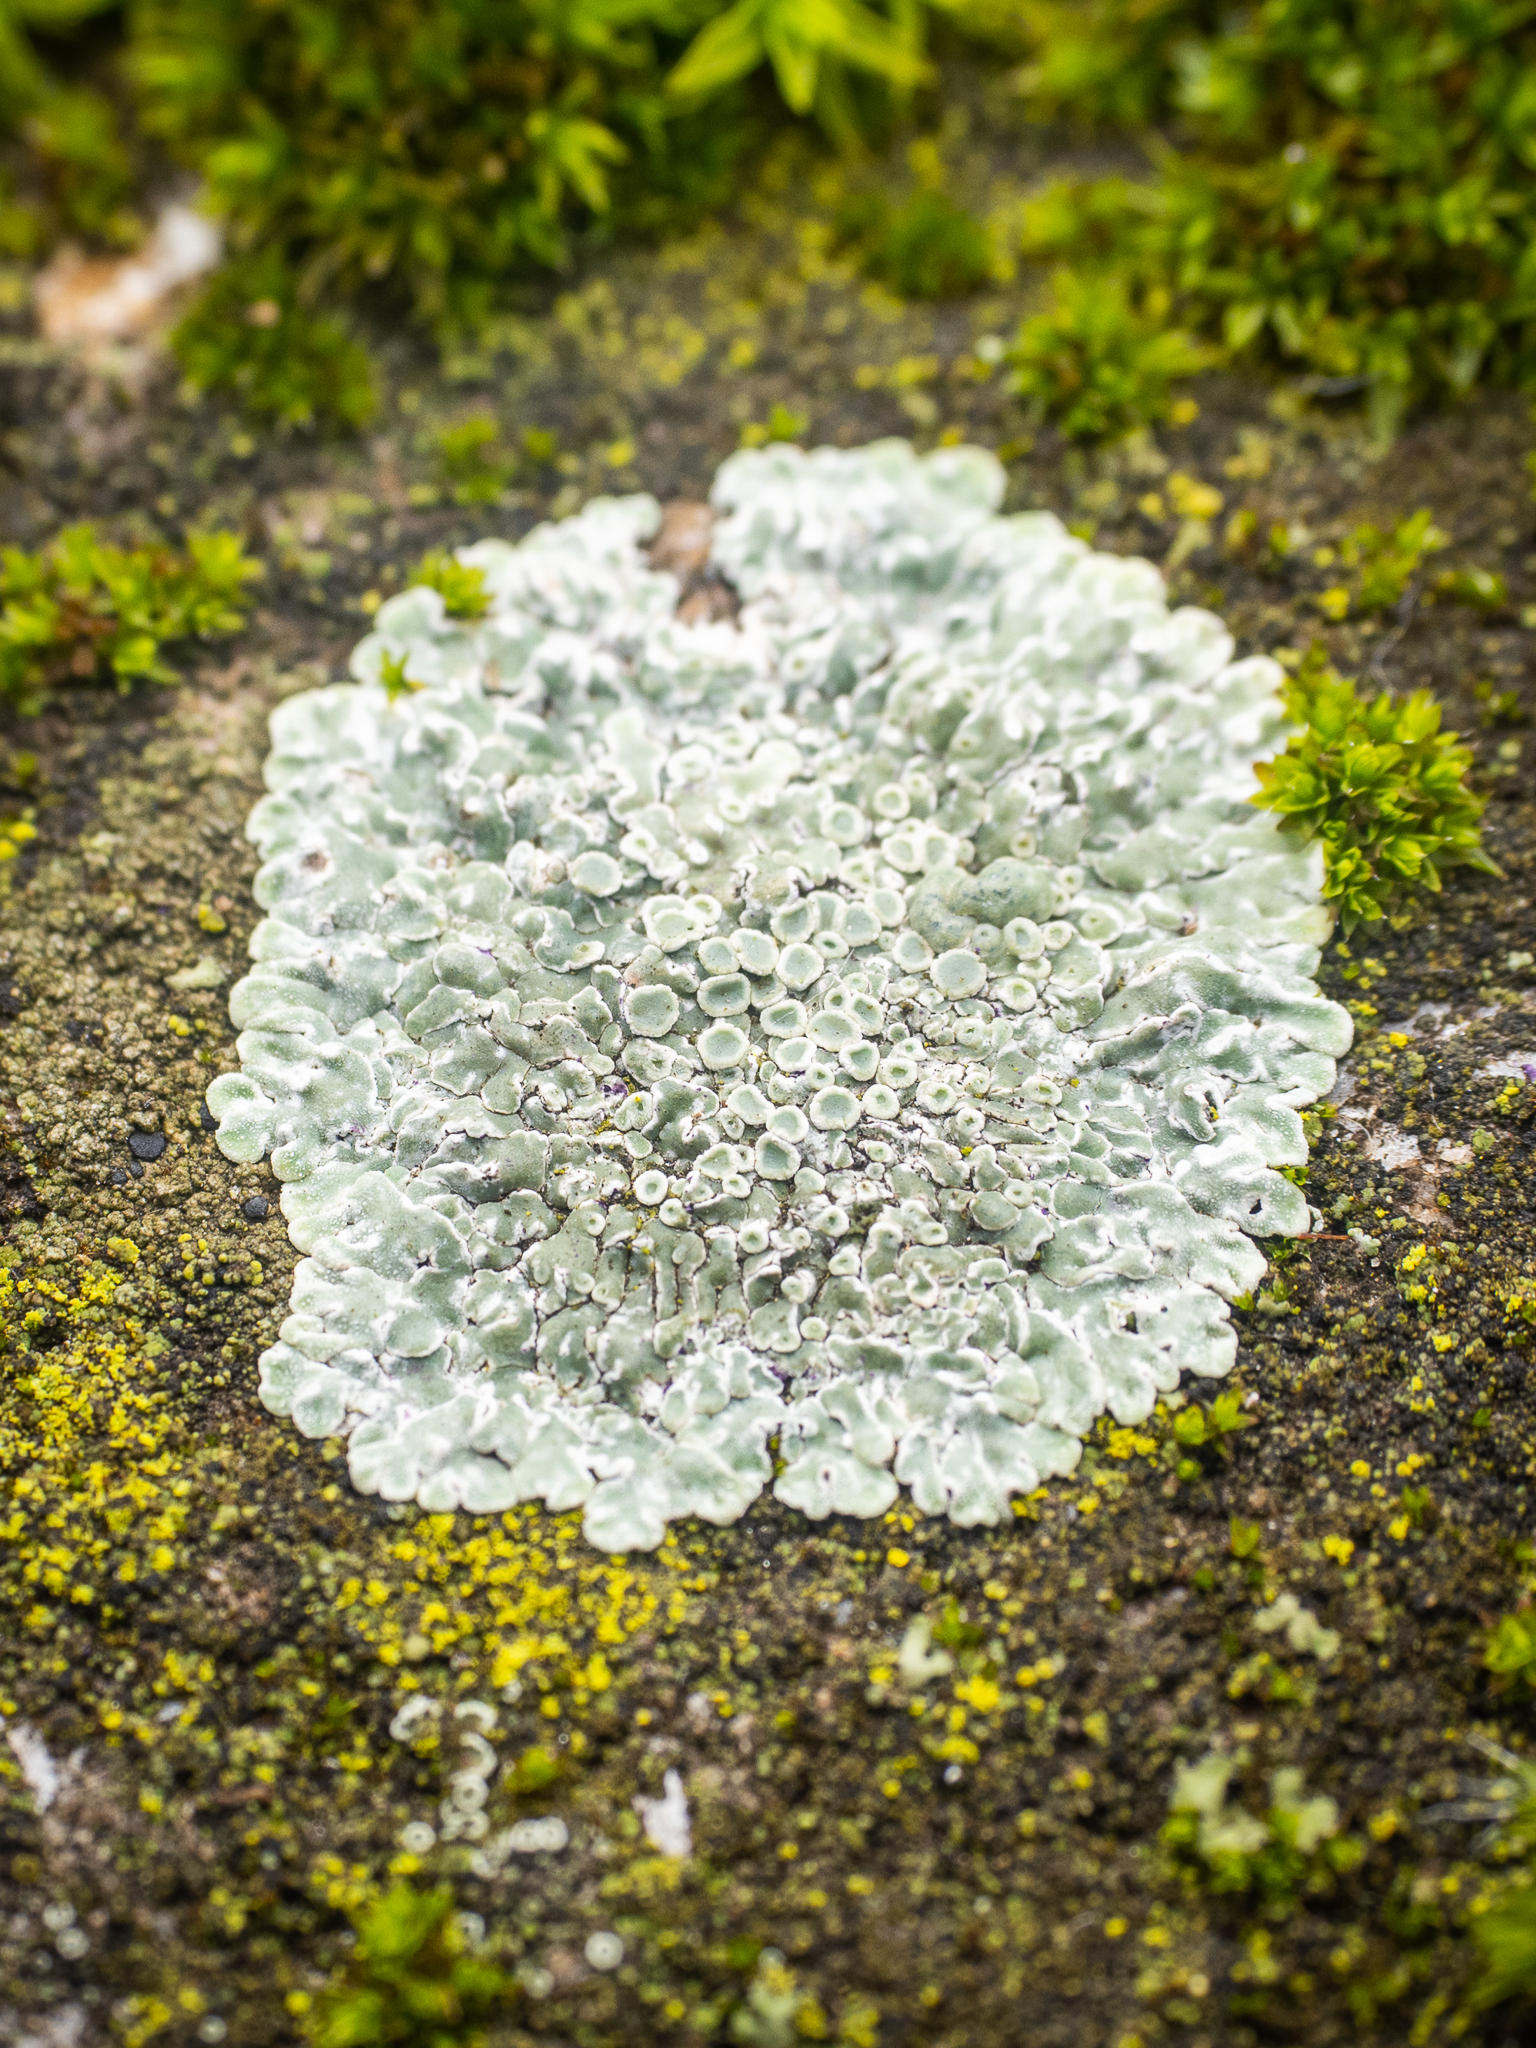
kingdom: Fungi
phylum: Ascomycota
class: Lecanoromycetes
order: Lecanorales
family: Lecanoraceae
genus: Protoparmeliopsis
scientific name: Protoparmeliopsis muralis
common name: Stonewall rim lichen
